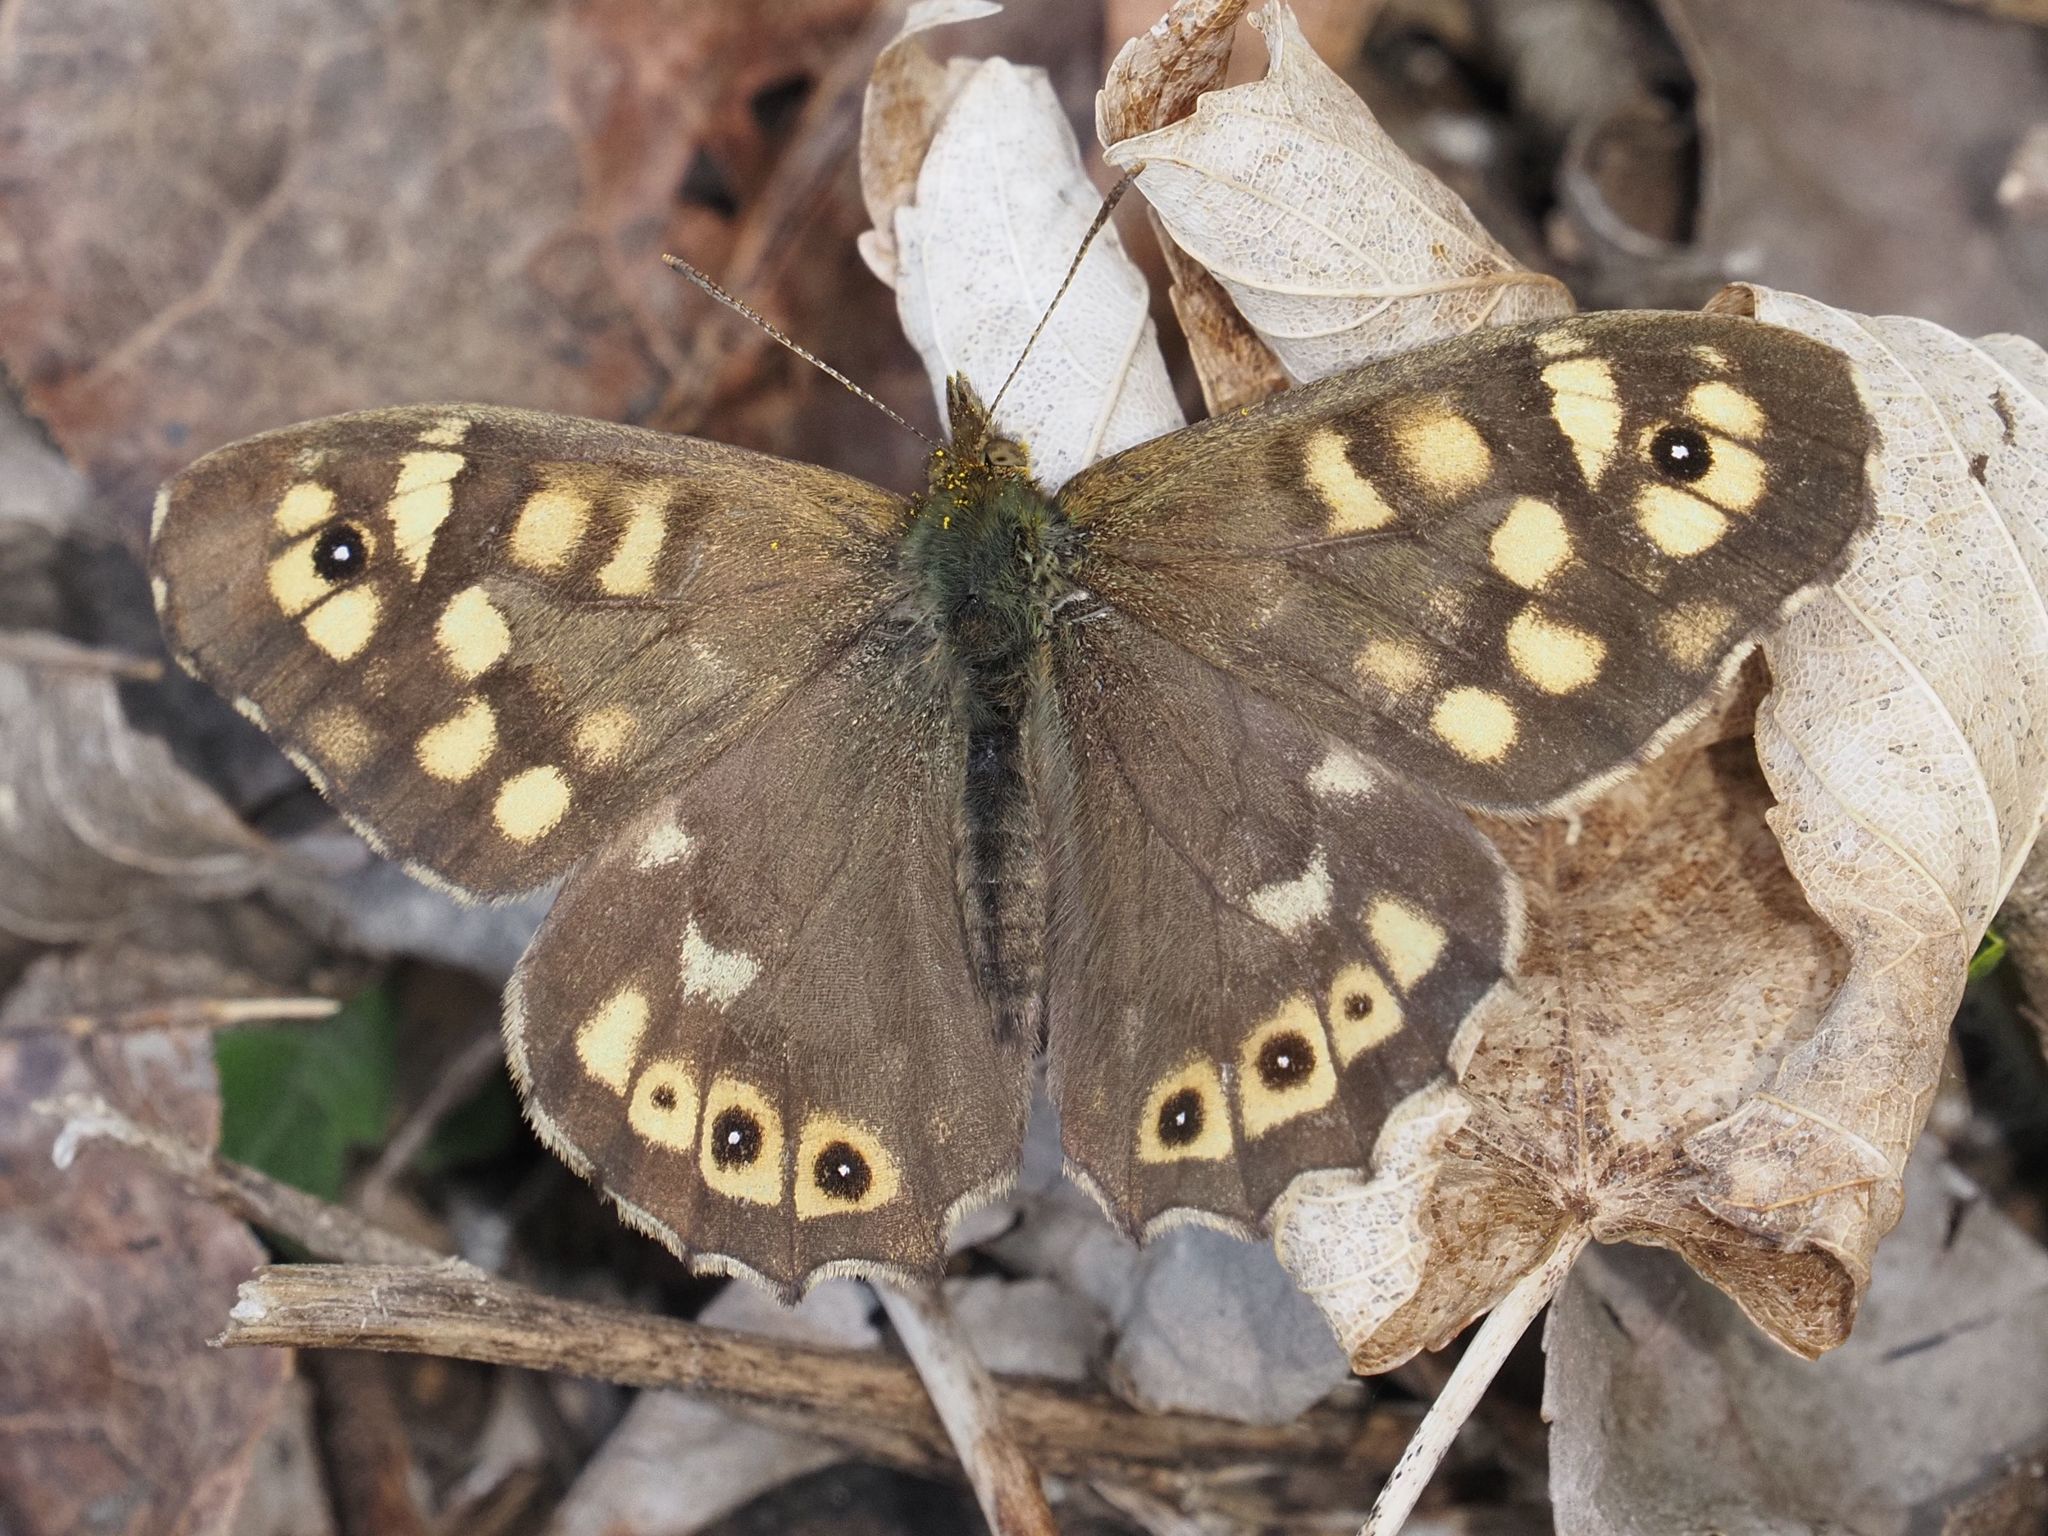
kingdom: Animalia
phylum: Arthropoda
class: Insecta
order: Lepidoptera
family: Nymphalidae
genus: Pararge
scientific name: Pararge aegeria
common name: Speckled wood
